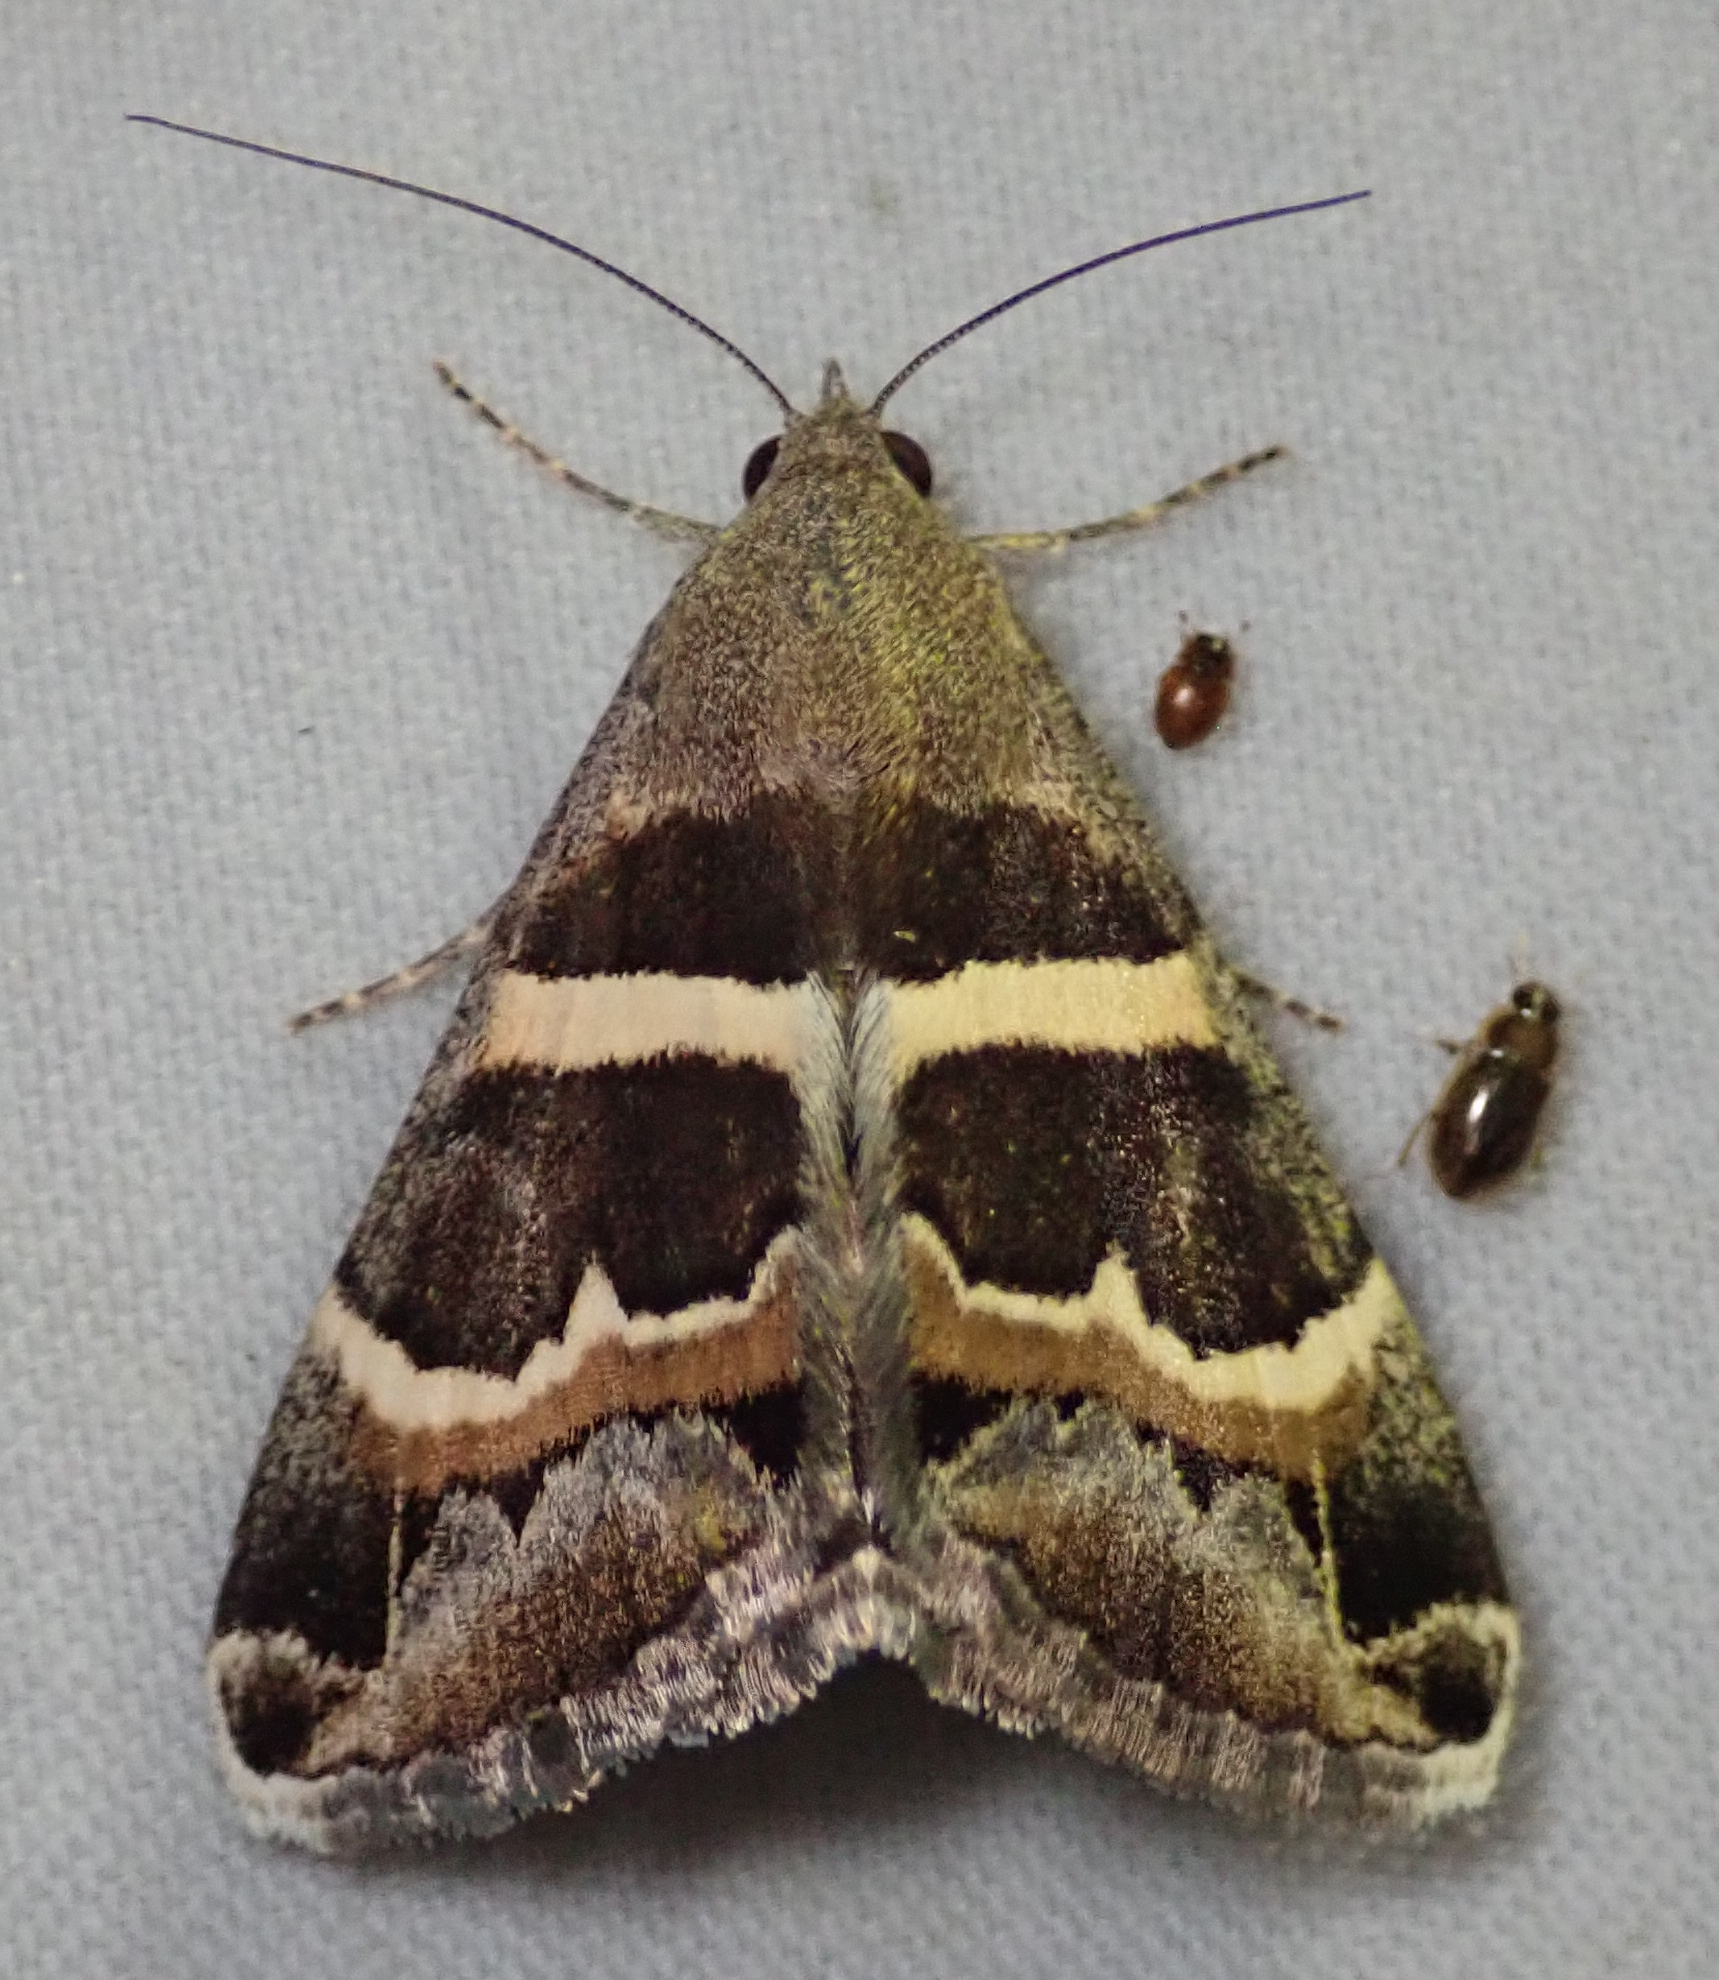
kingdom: Animalia
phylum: Arthropoda
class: Insecta
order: Lepidoptera
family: Erebidae
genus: Grammodes
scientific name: Grammodes stolida
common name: Geometrician
